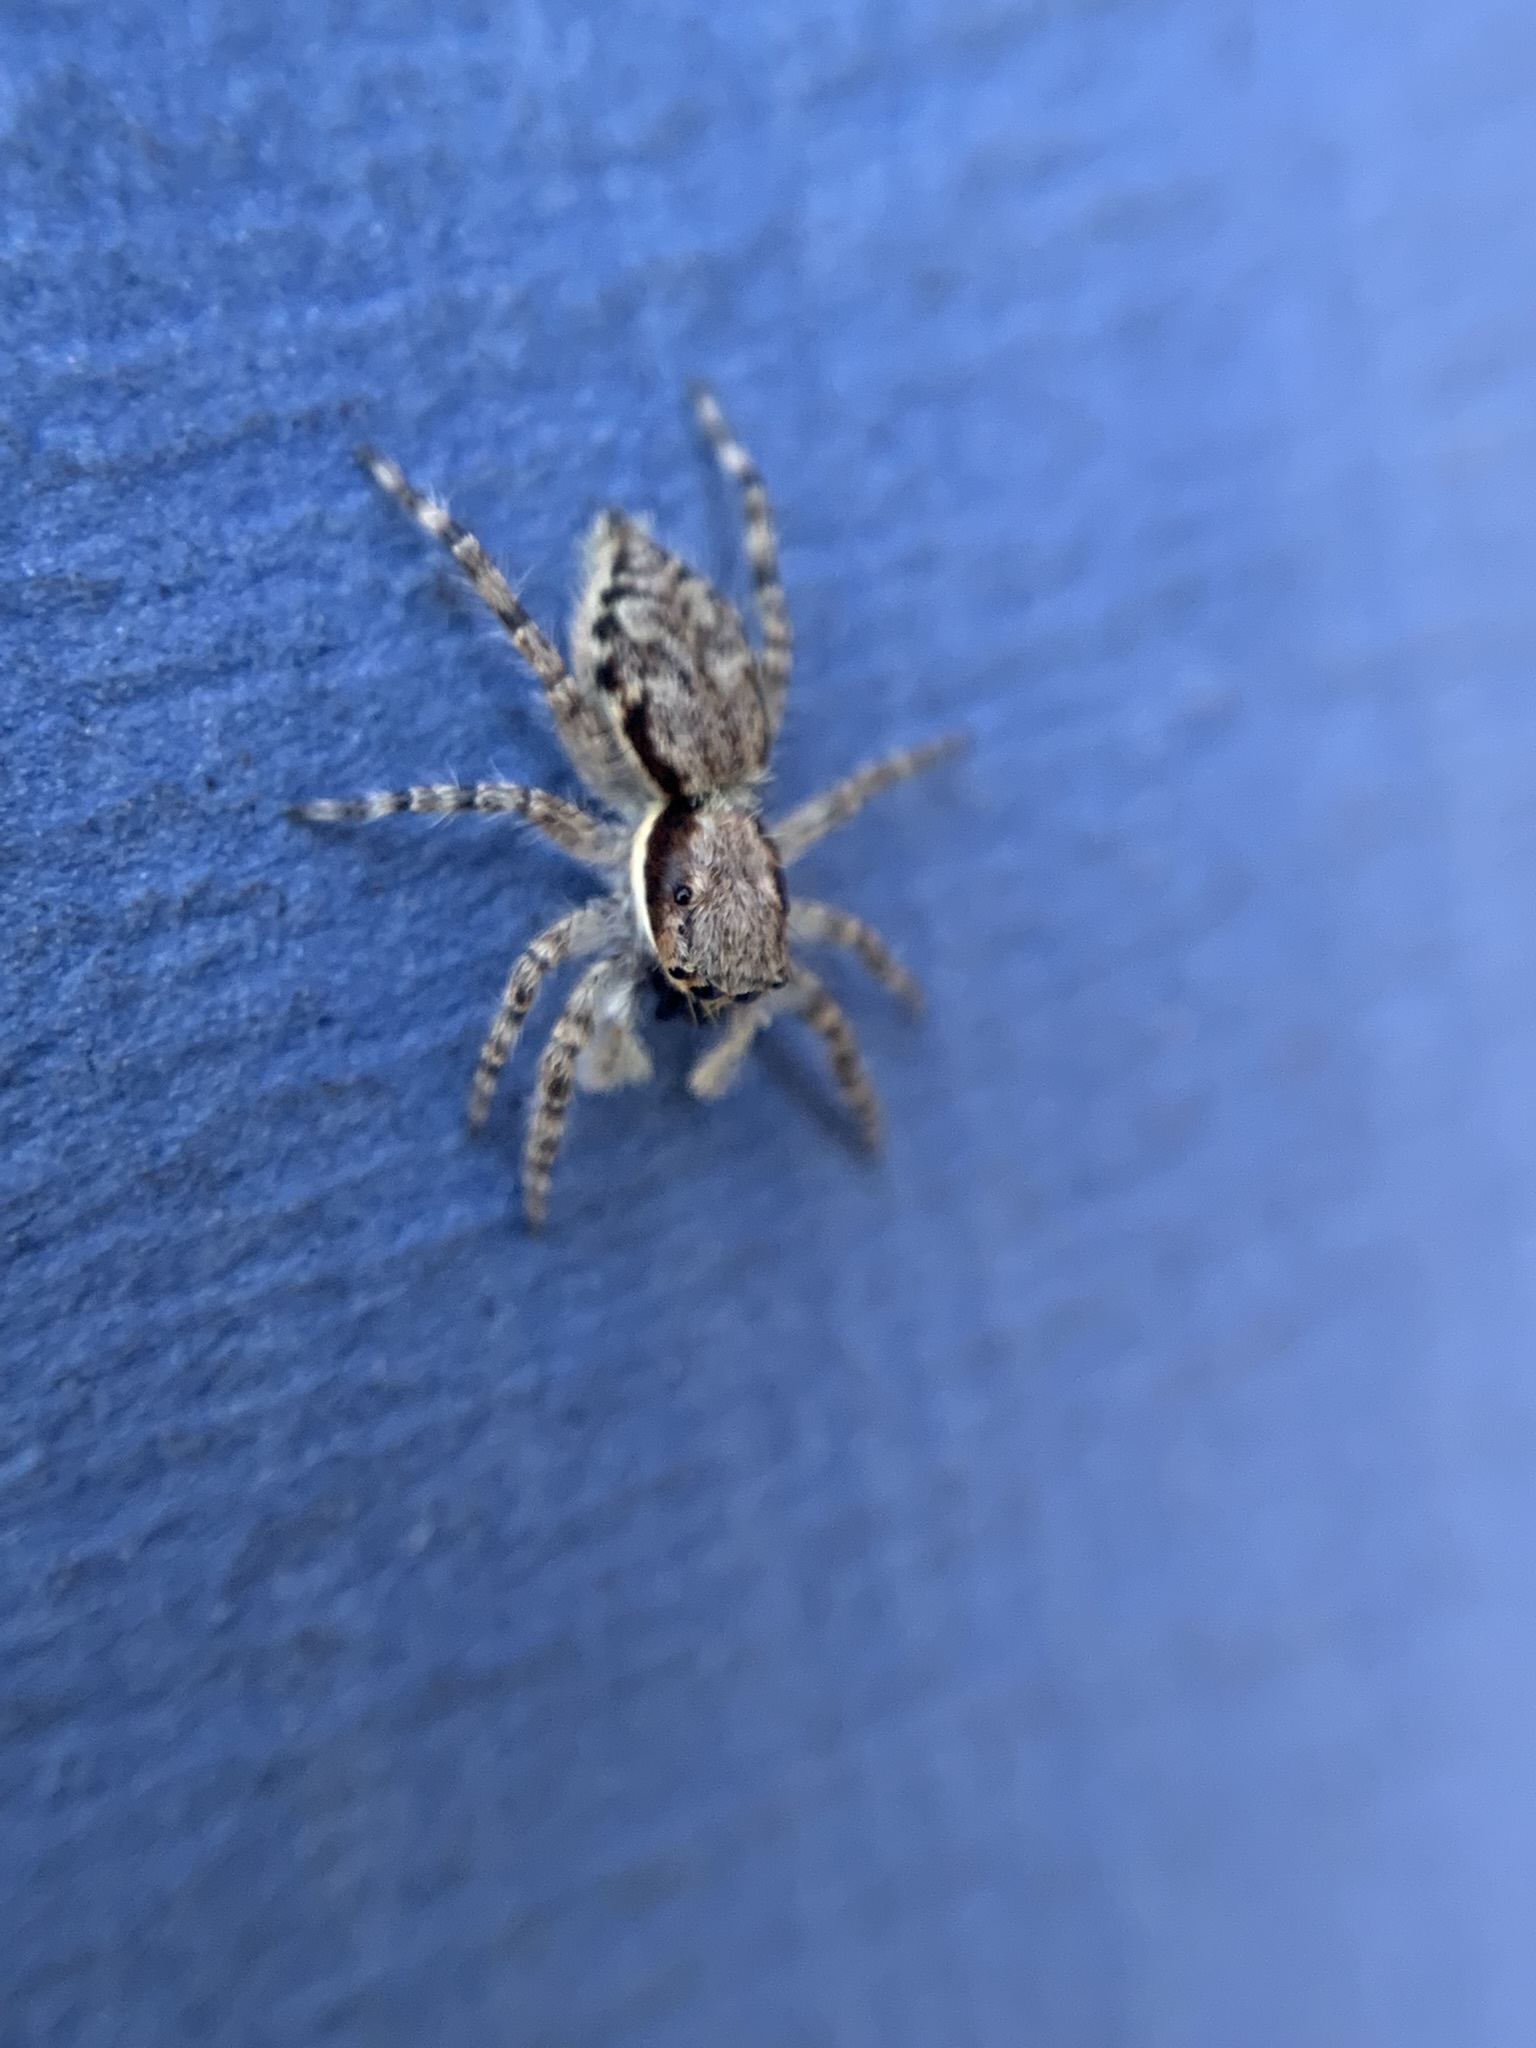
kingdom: Animalia
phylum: Arthropoda
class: Arachnida
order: Araneae
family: Salticidae
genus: Menemerus
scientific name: Menemerus bivittatus
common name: Gray wall jumper
